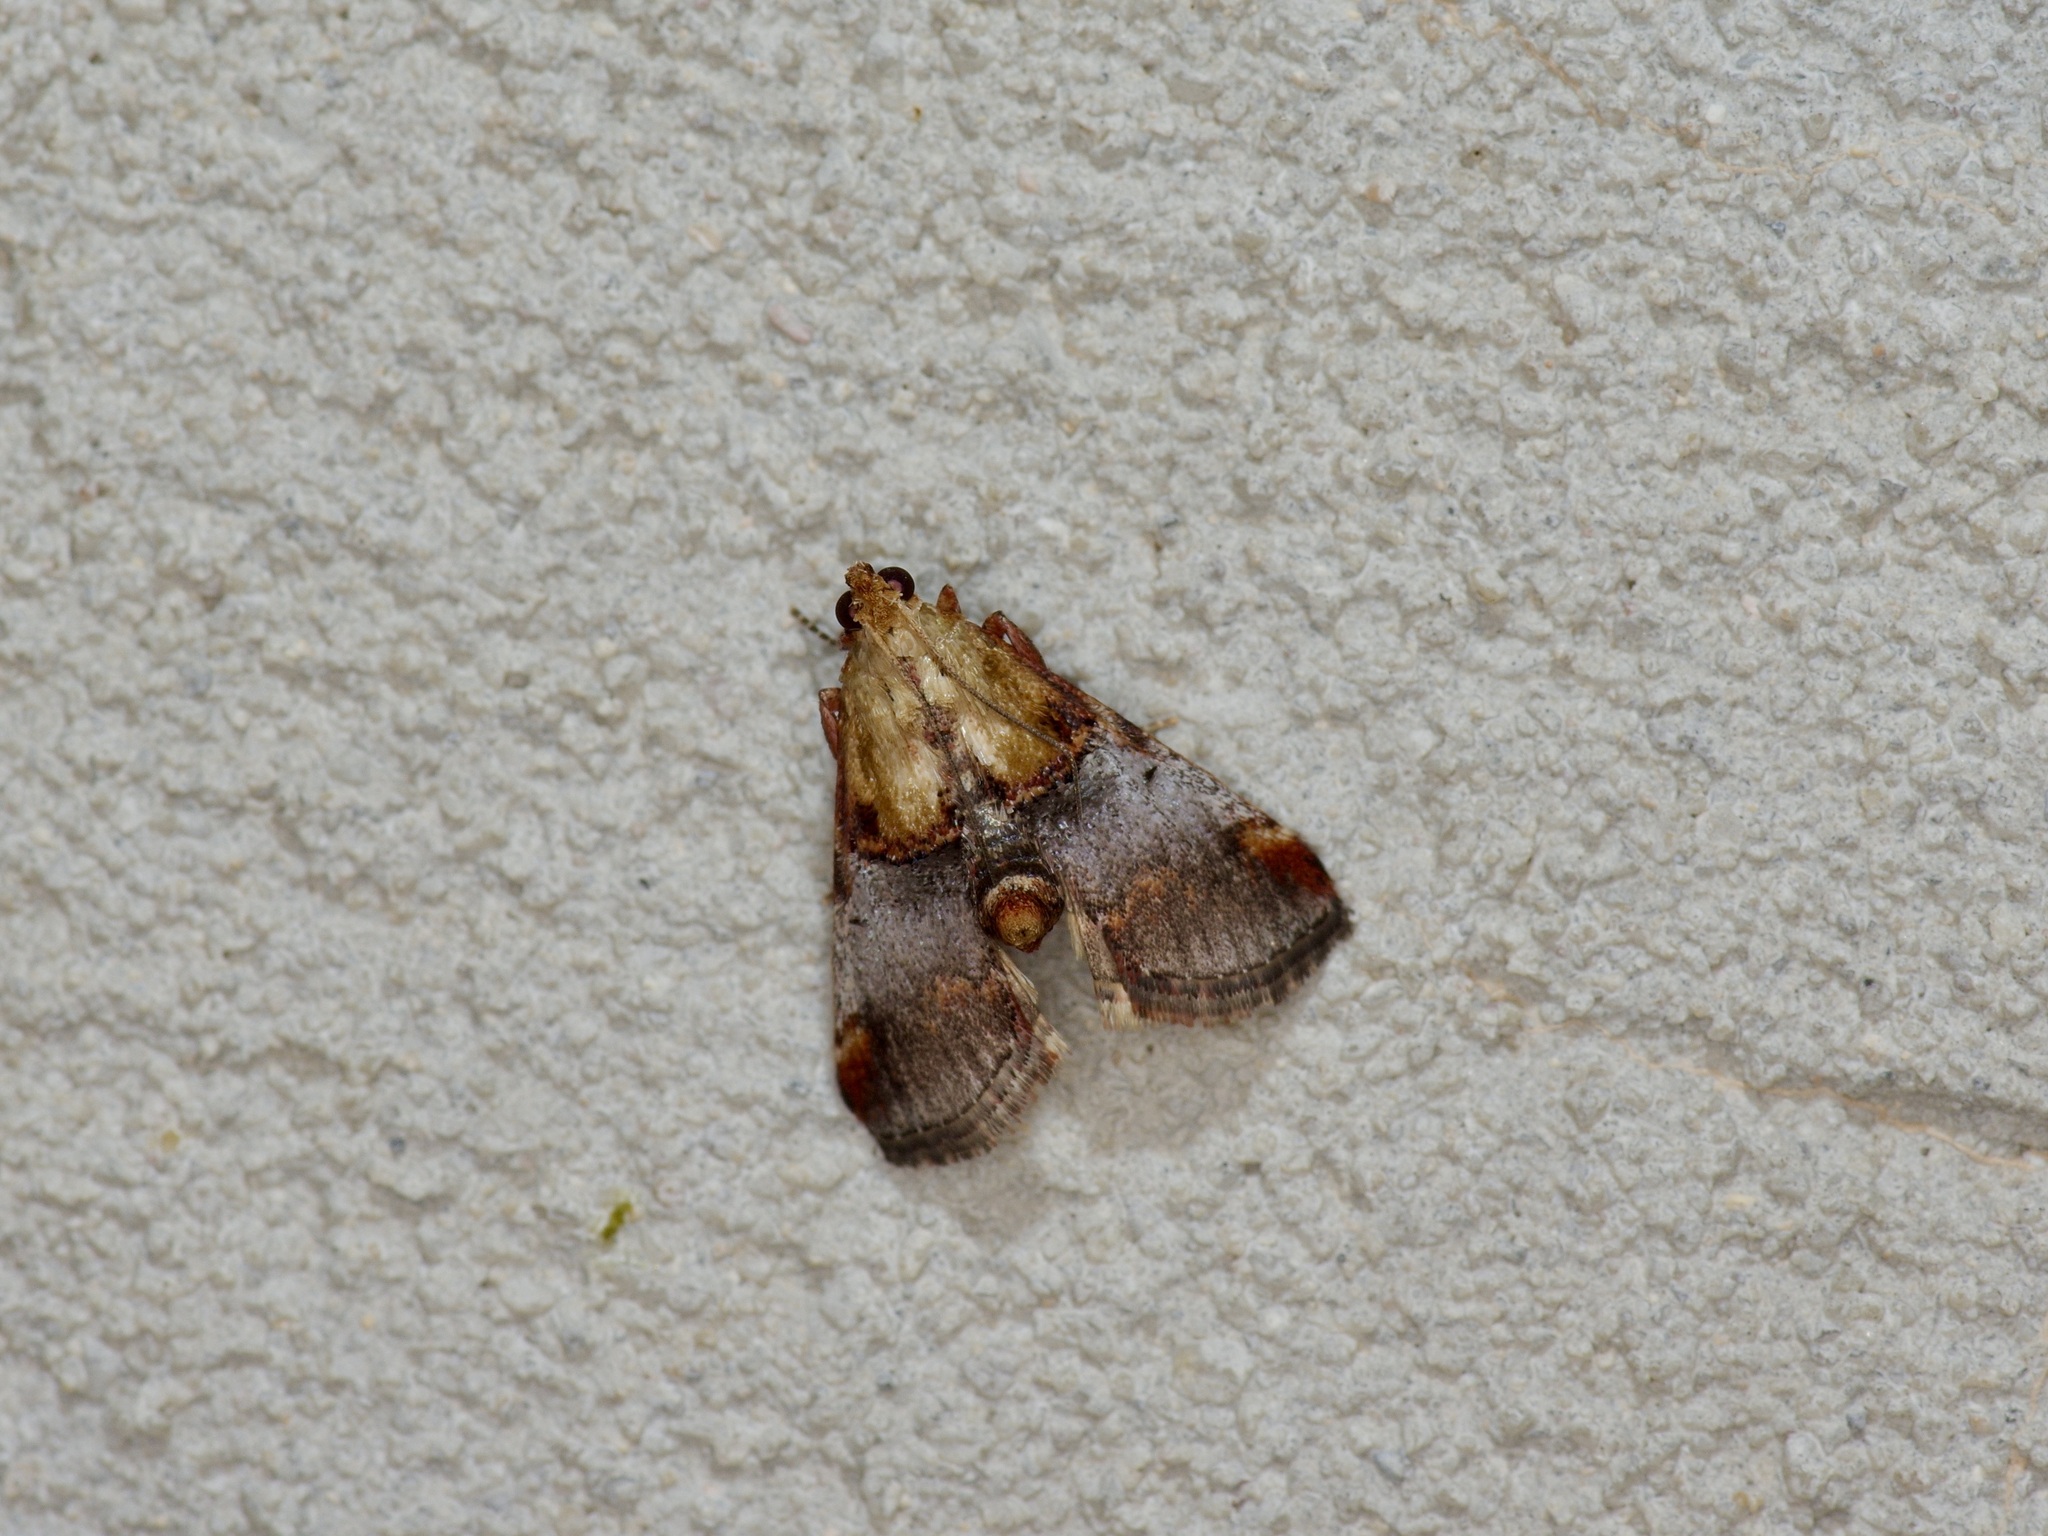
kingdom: Animalia
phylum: Arthropoda
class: Insecta
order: Lepidoptera
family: Pyralidae
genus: Cacozelia
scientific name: Cacozelia basiochrealis
